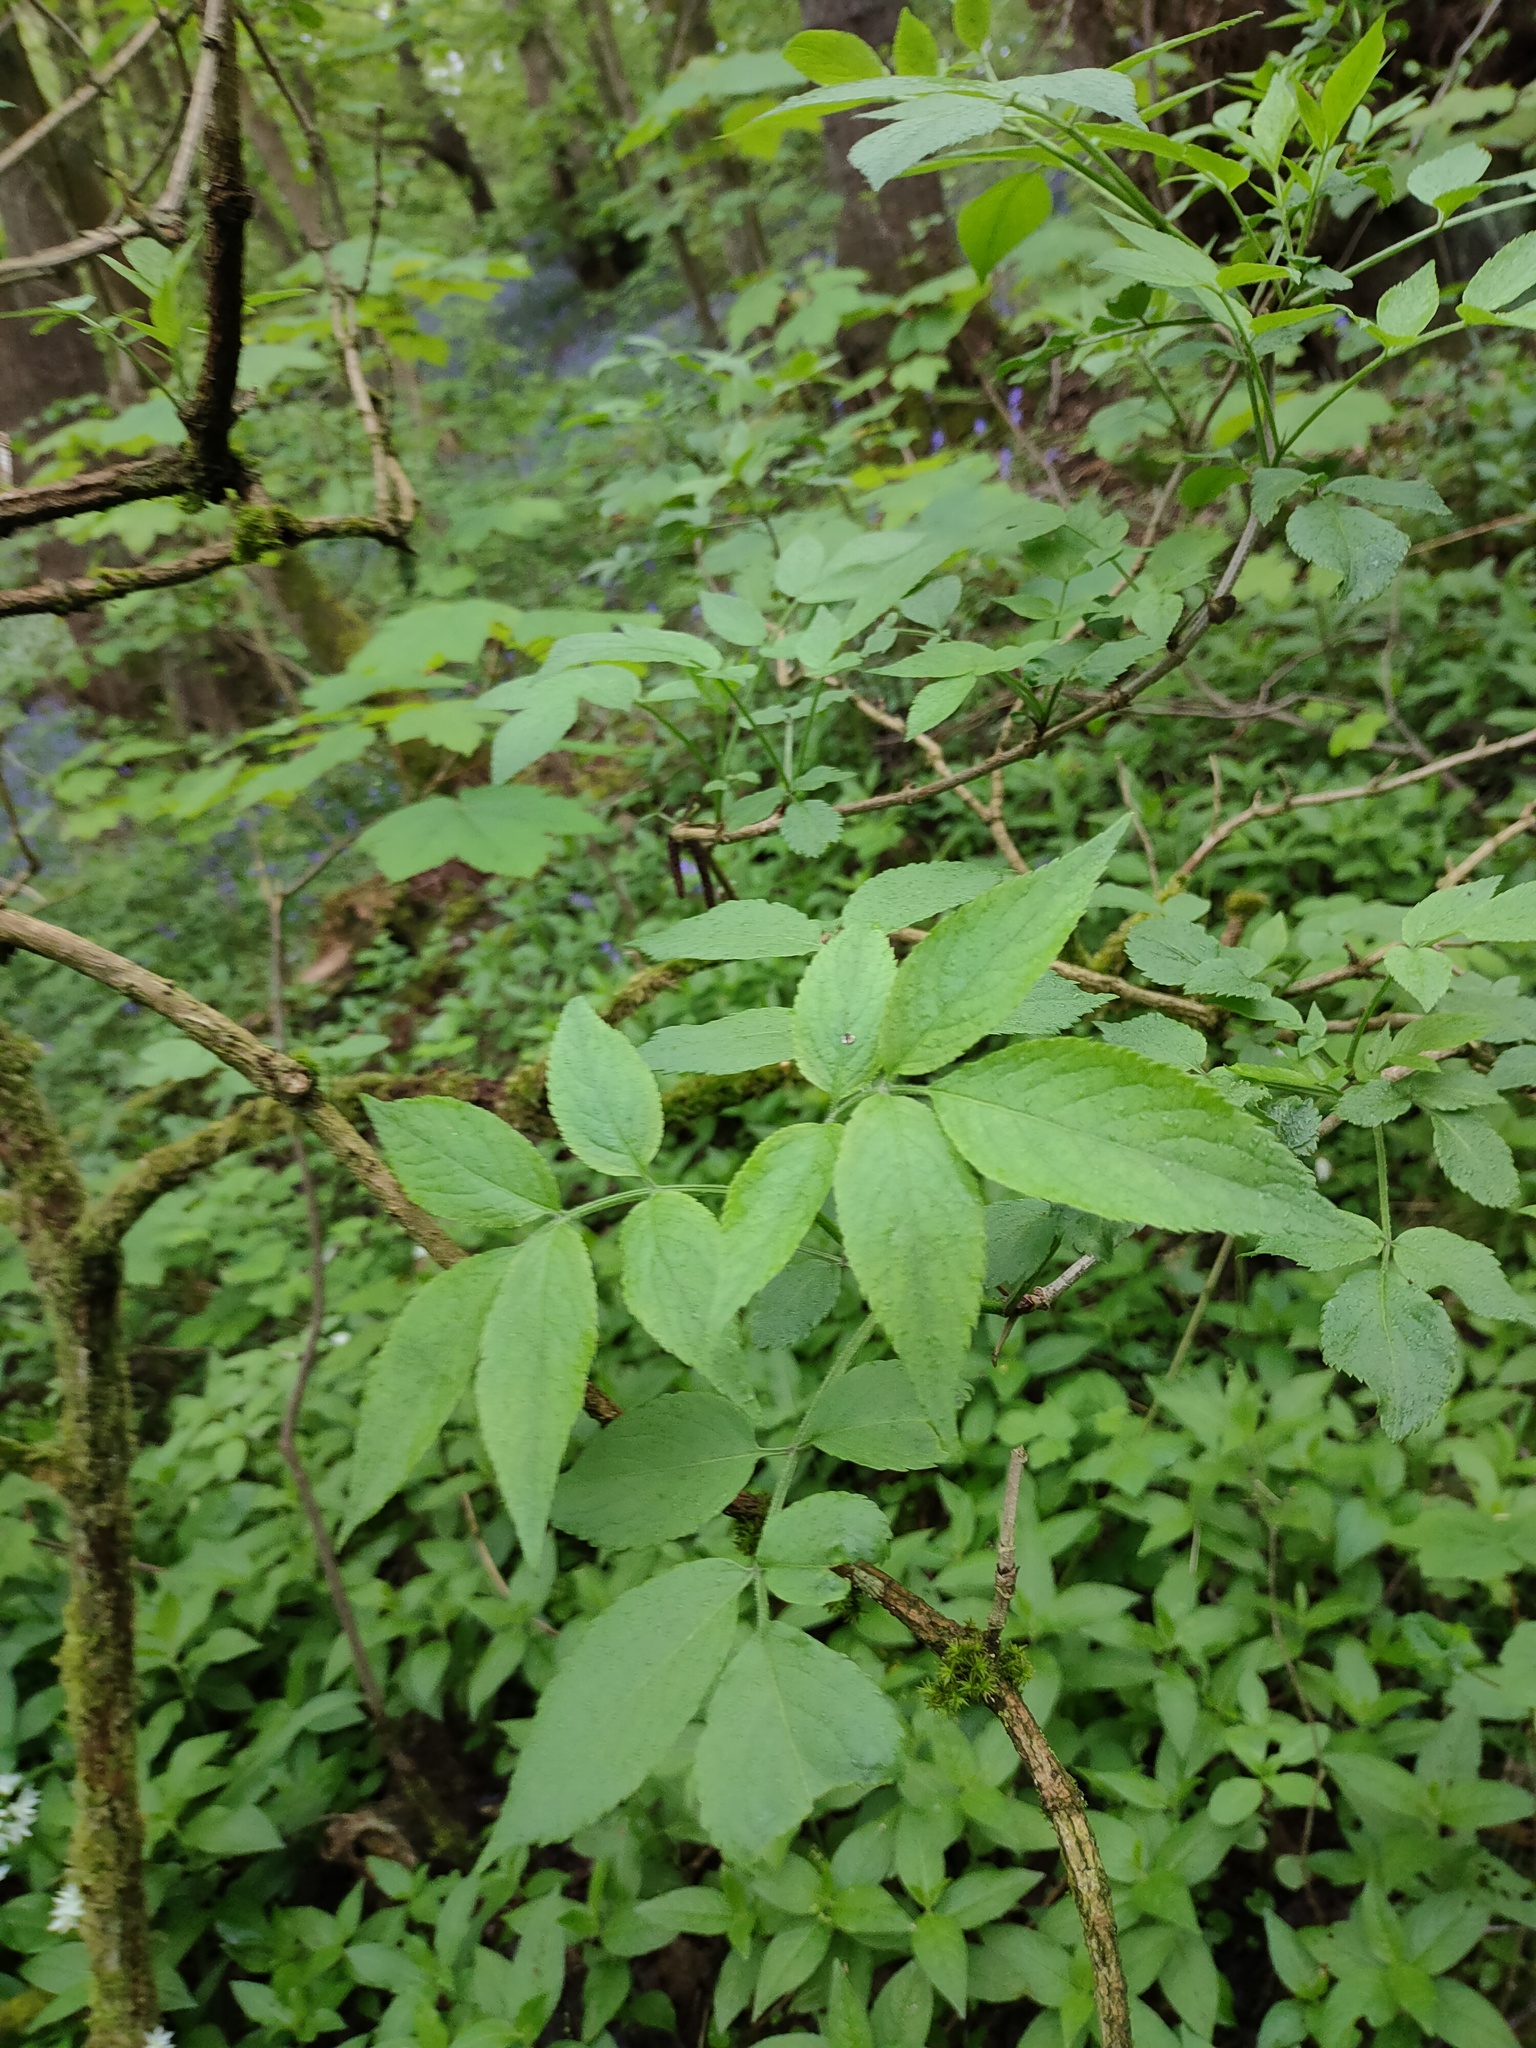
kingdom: Plantae
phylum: Tracheophyta
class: Magnoliopsida
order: Dipsacales
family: Viburnaceae
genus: Sambucus
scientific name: Sambucus nigra
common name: Elder
